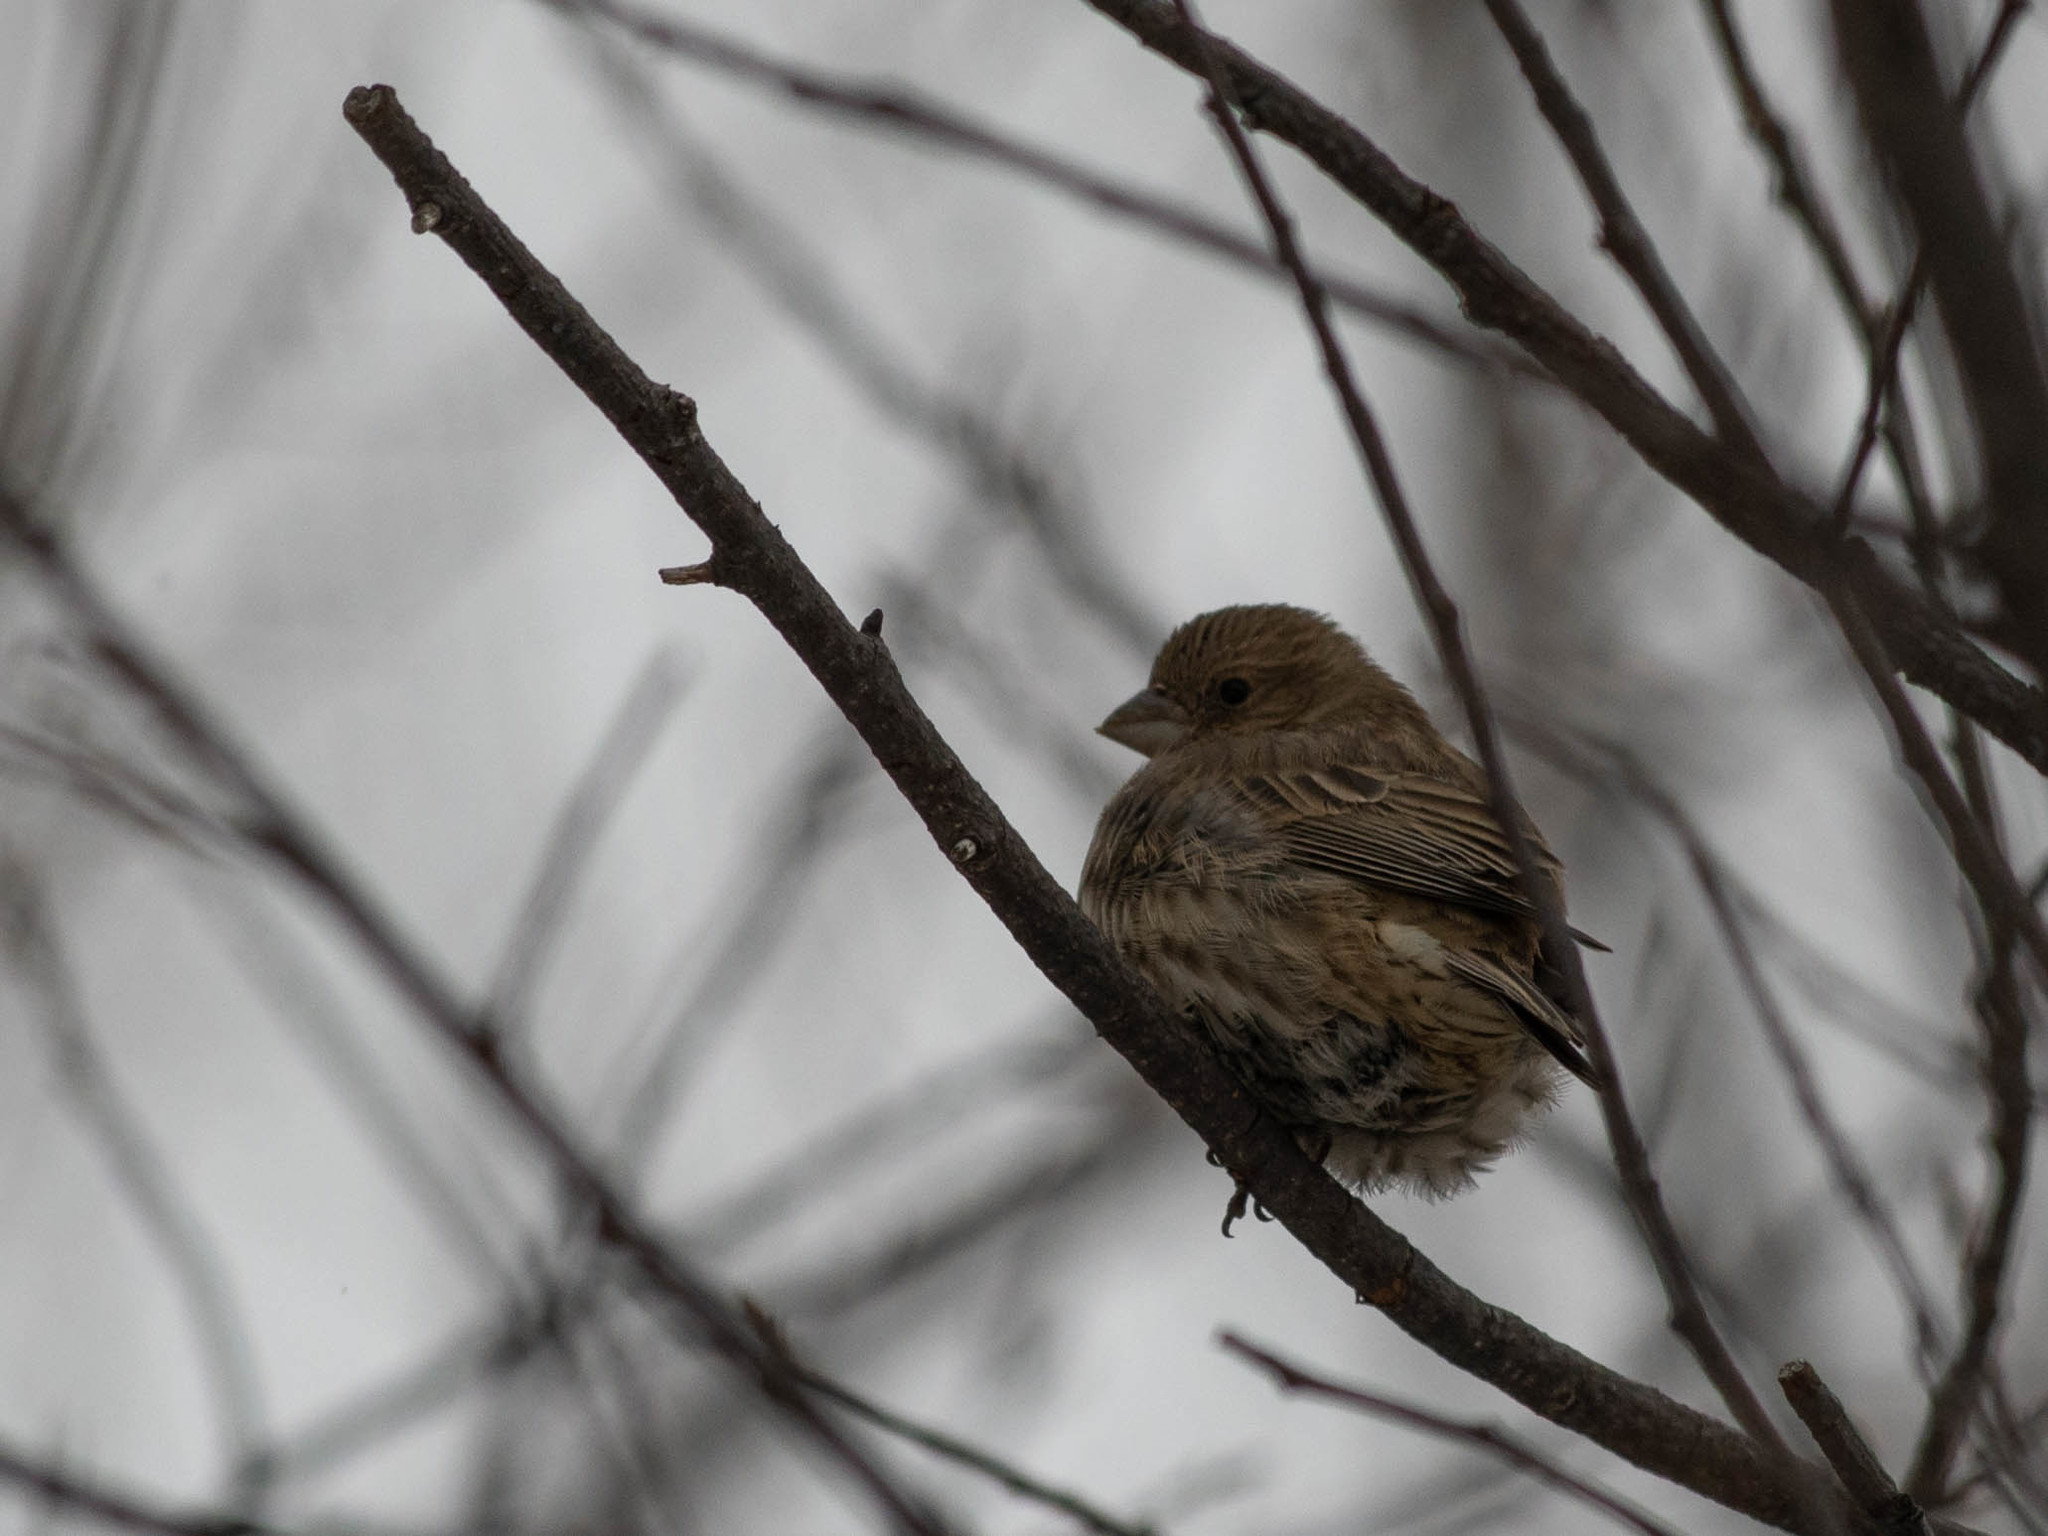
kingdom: Animalia
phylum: Chordata
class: Aves
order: Passeriformes
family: Fringillidae
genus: Haemorhous
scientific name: Haemorhous mexicanus
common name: House finch
